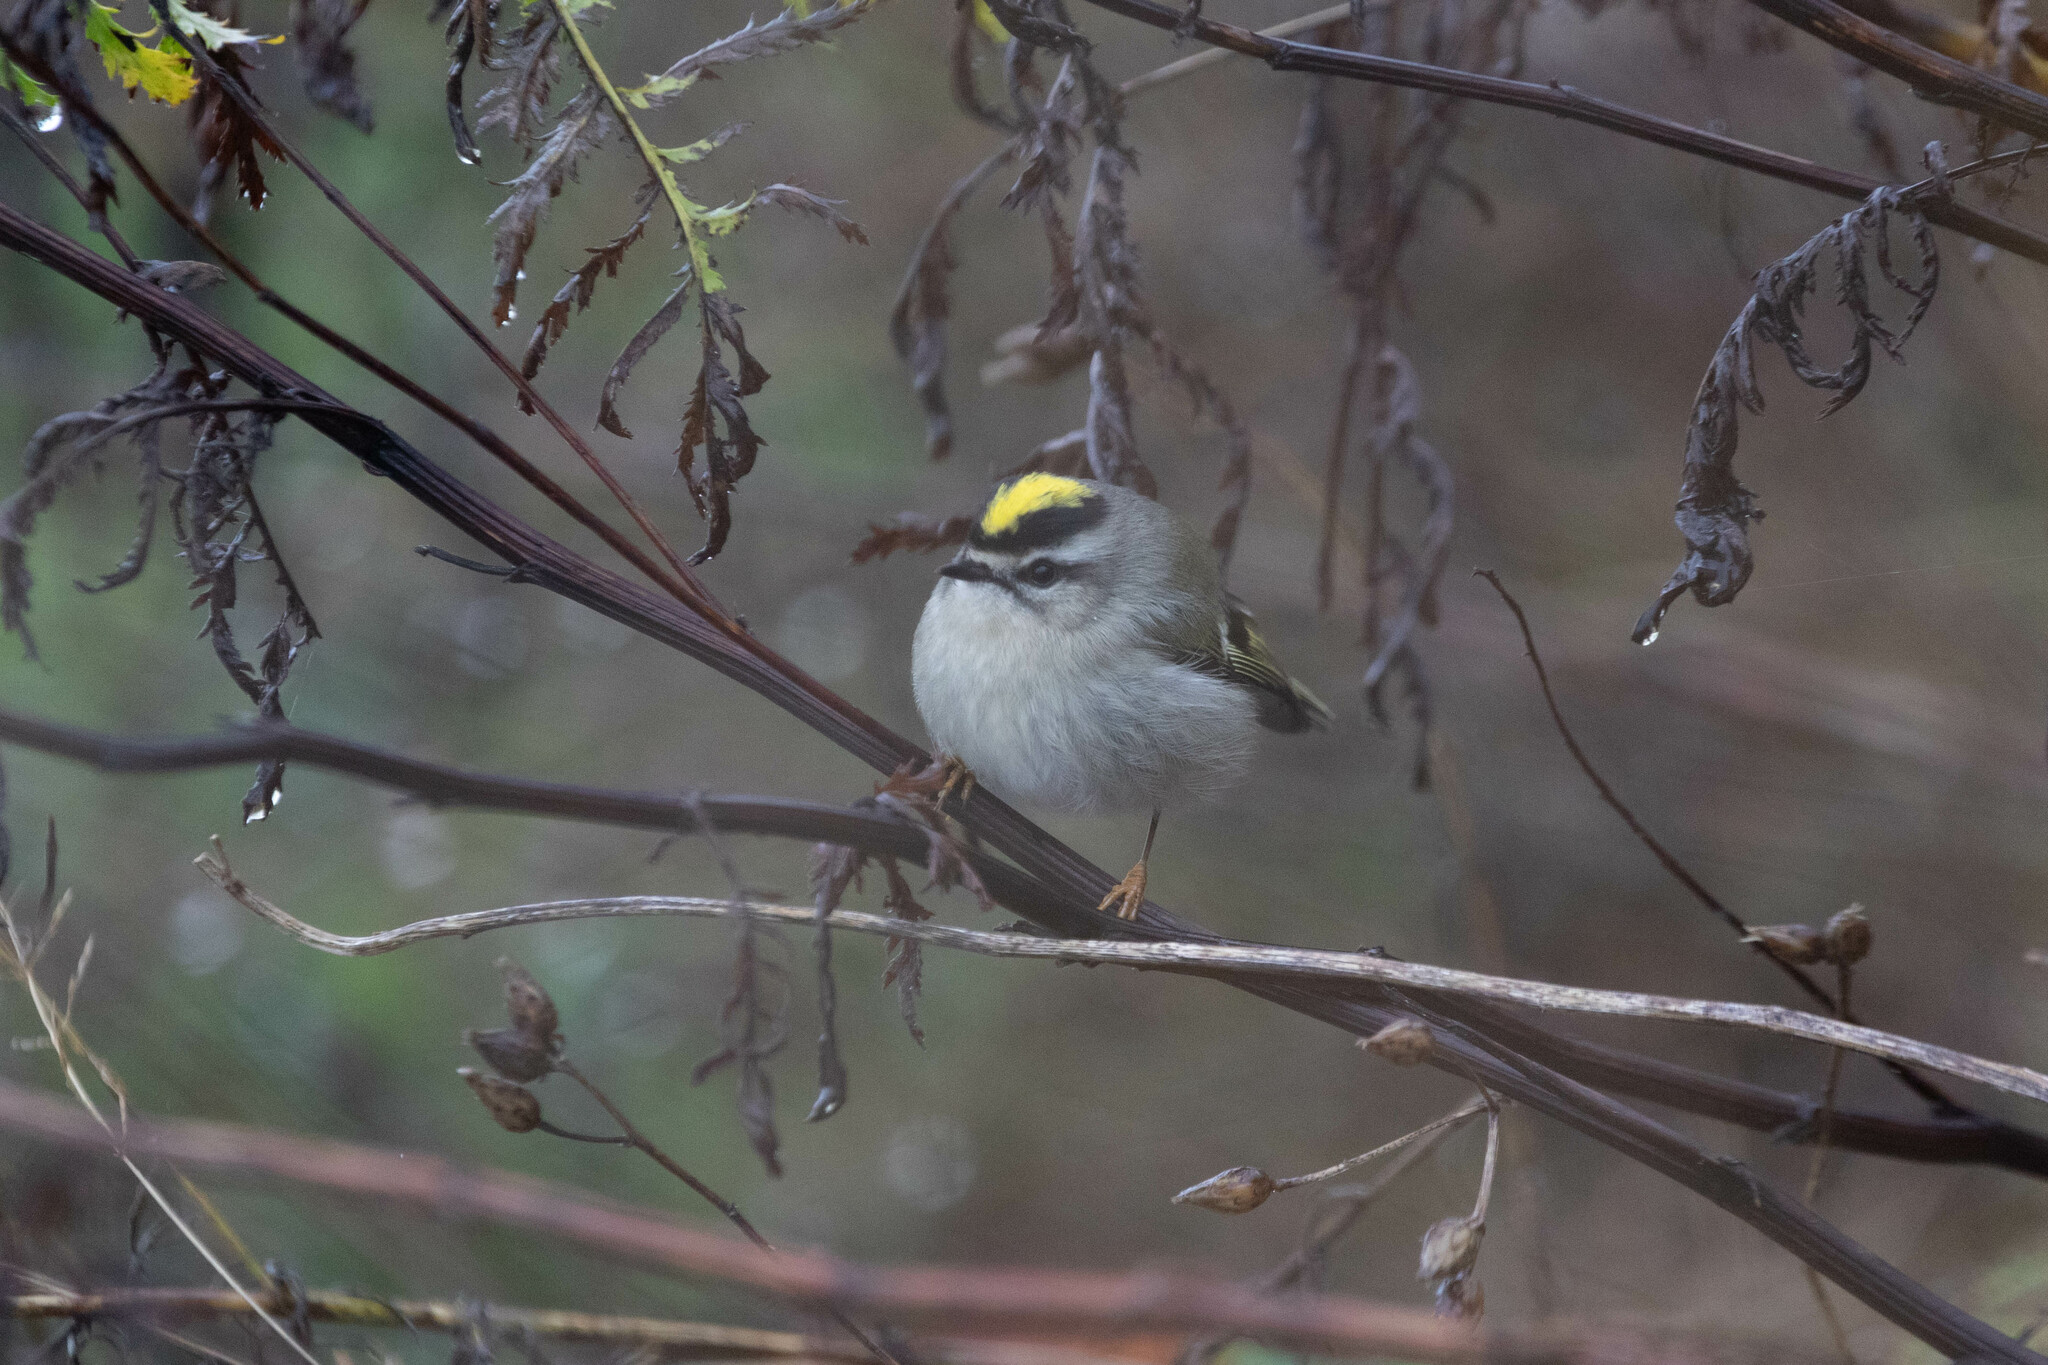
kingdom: Animalia
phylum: Chordata
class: Aves
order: Passeriformes
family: Regulidae
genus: Regulus
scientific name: Regulus satrapa
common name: Golden-crowned kinglet
